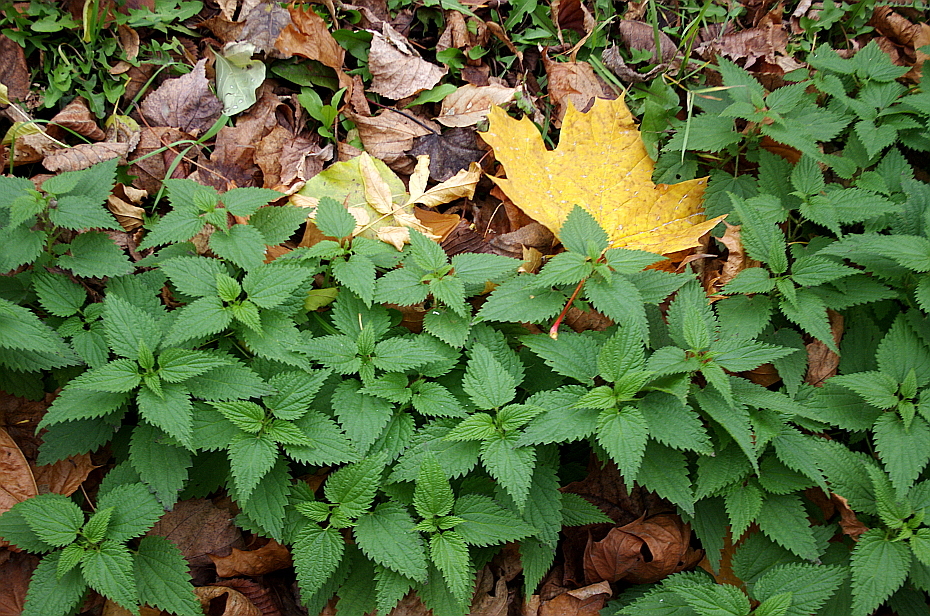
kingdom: Plantae
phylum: Tracheophyta
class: Magnoliopsida
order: Rosales
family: Urticaceae
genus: Urtica
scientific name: Urtica dioica
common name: Common nettle
